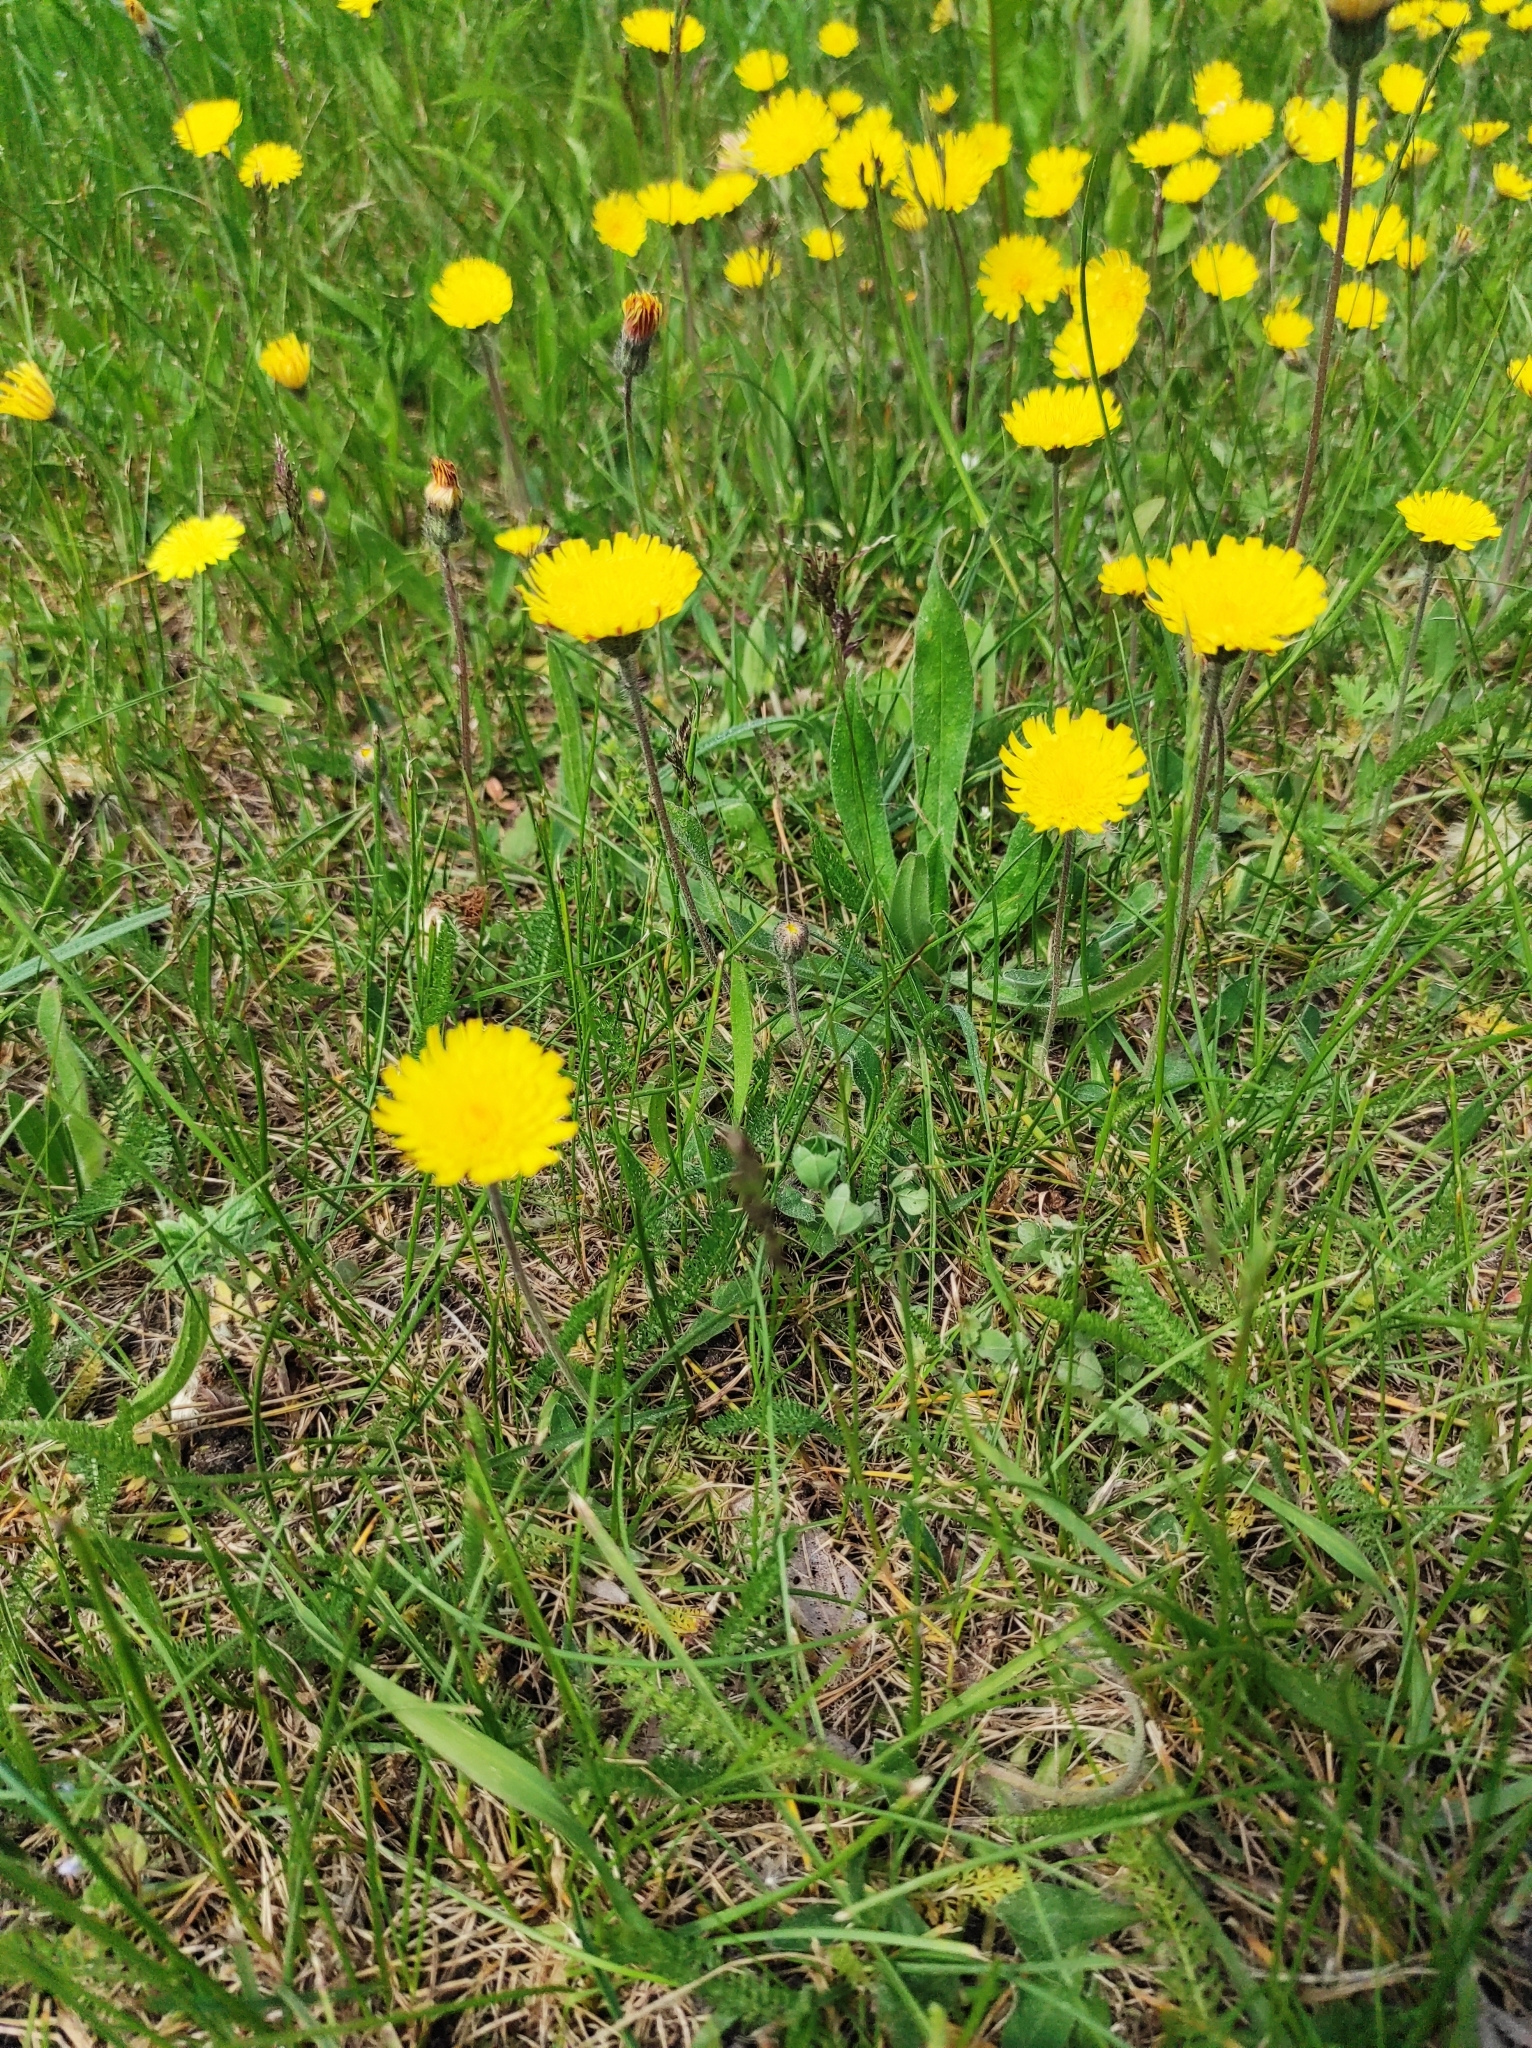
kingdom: Plantae
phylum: Tracheophyta
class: Magnoliopsida
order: Asterales
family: Asteraceae
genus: Pilosella
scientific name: Pilosella officinarum
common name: Mouse-ear hawkweed
